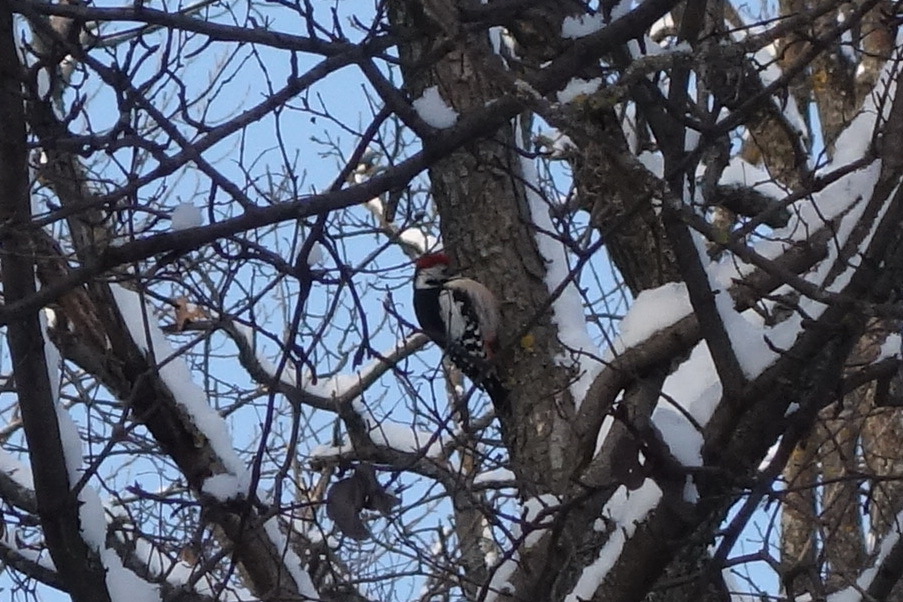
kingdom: Animalia
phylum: Chordata
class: Aves
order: Piciformes
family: Picidae
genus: Dendrocoptes
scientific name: Dendrocoptes medius
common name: Middle spotted woodpecker
